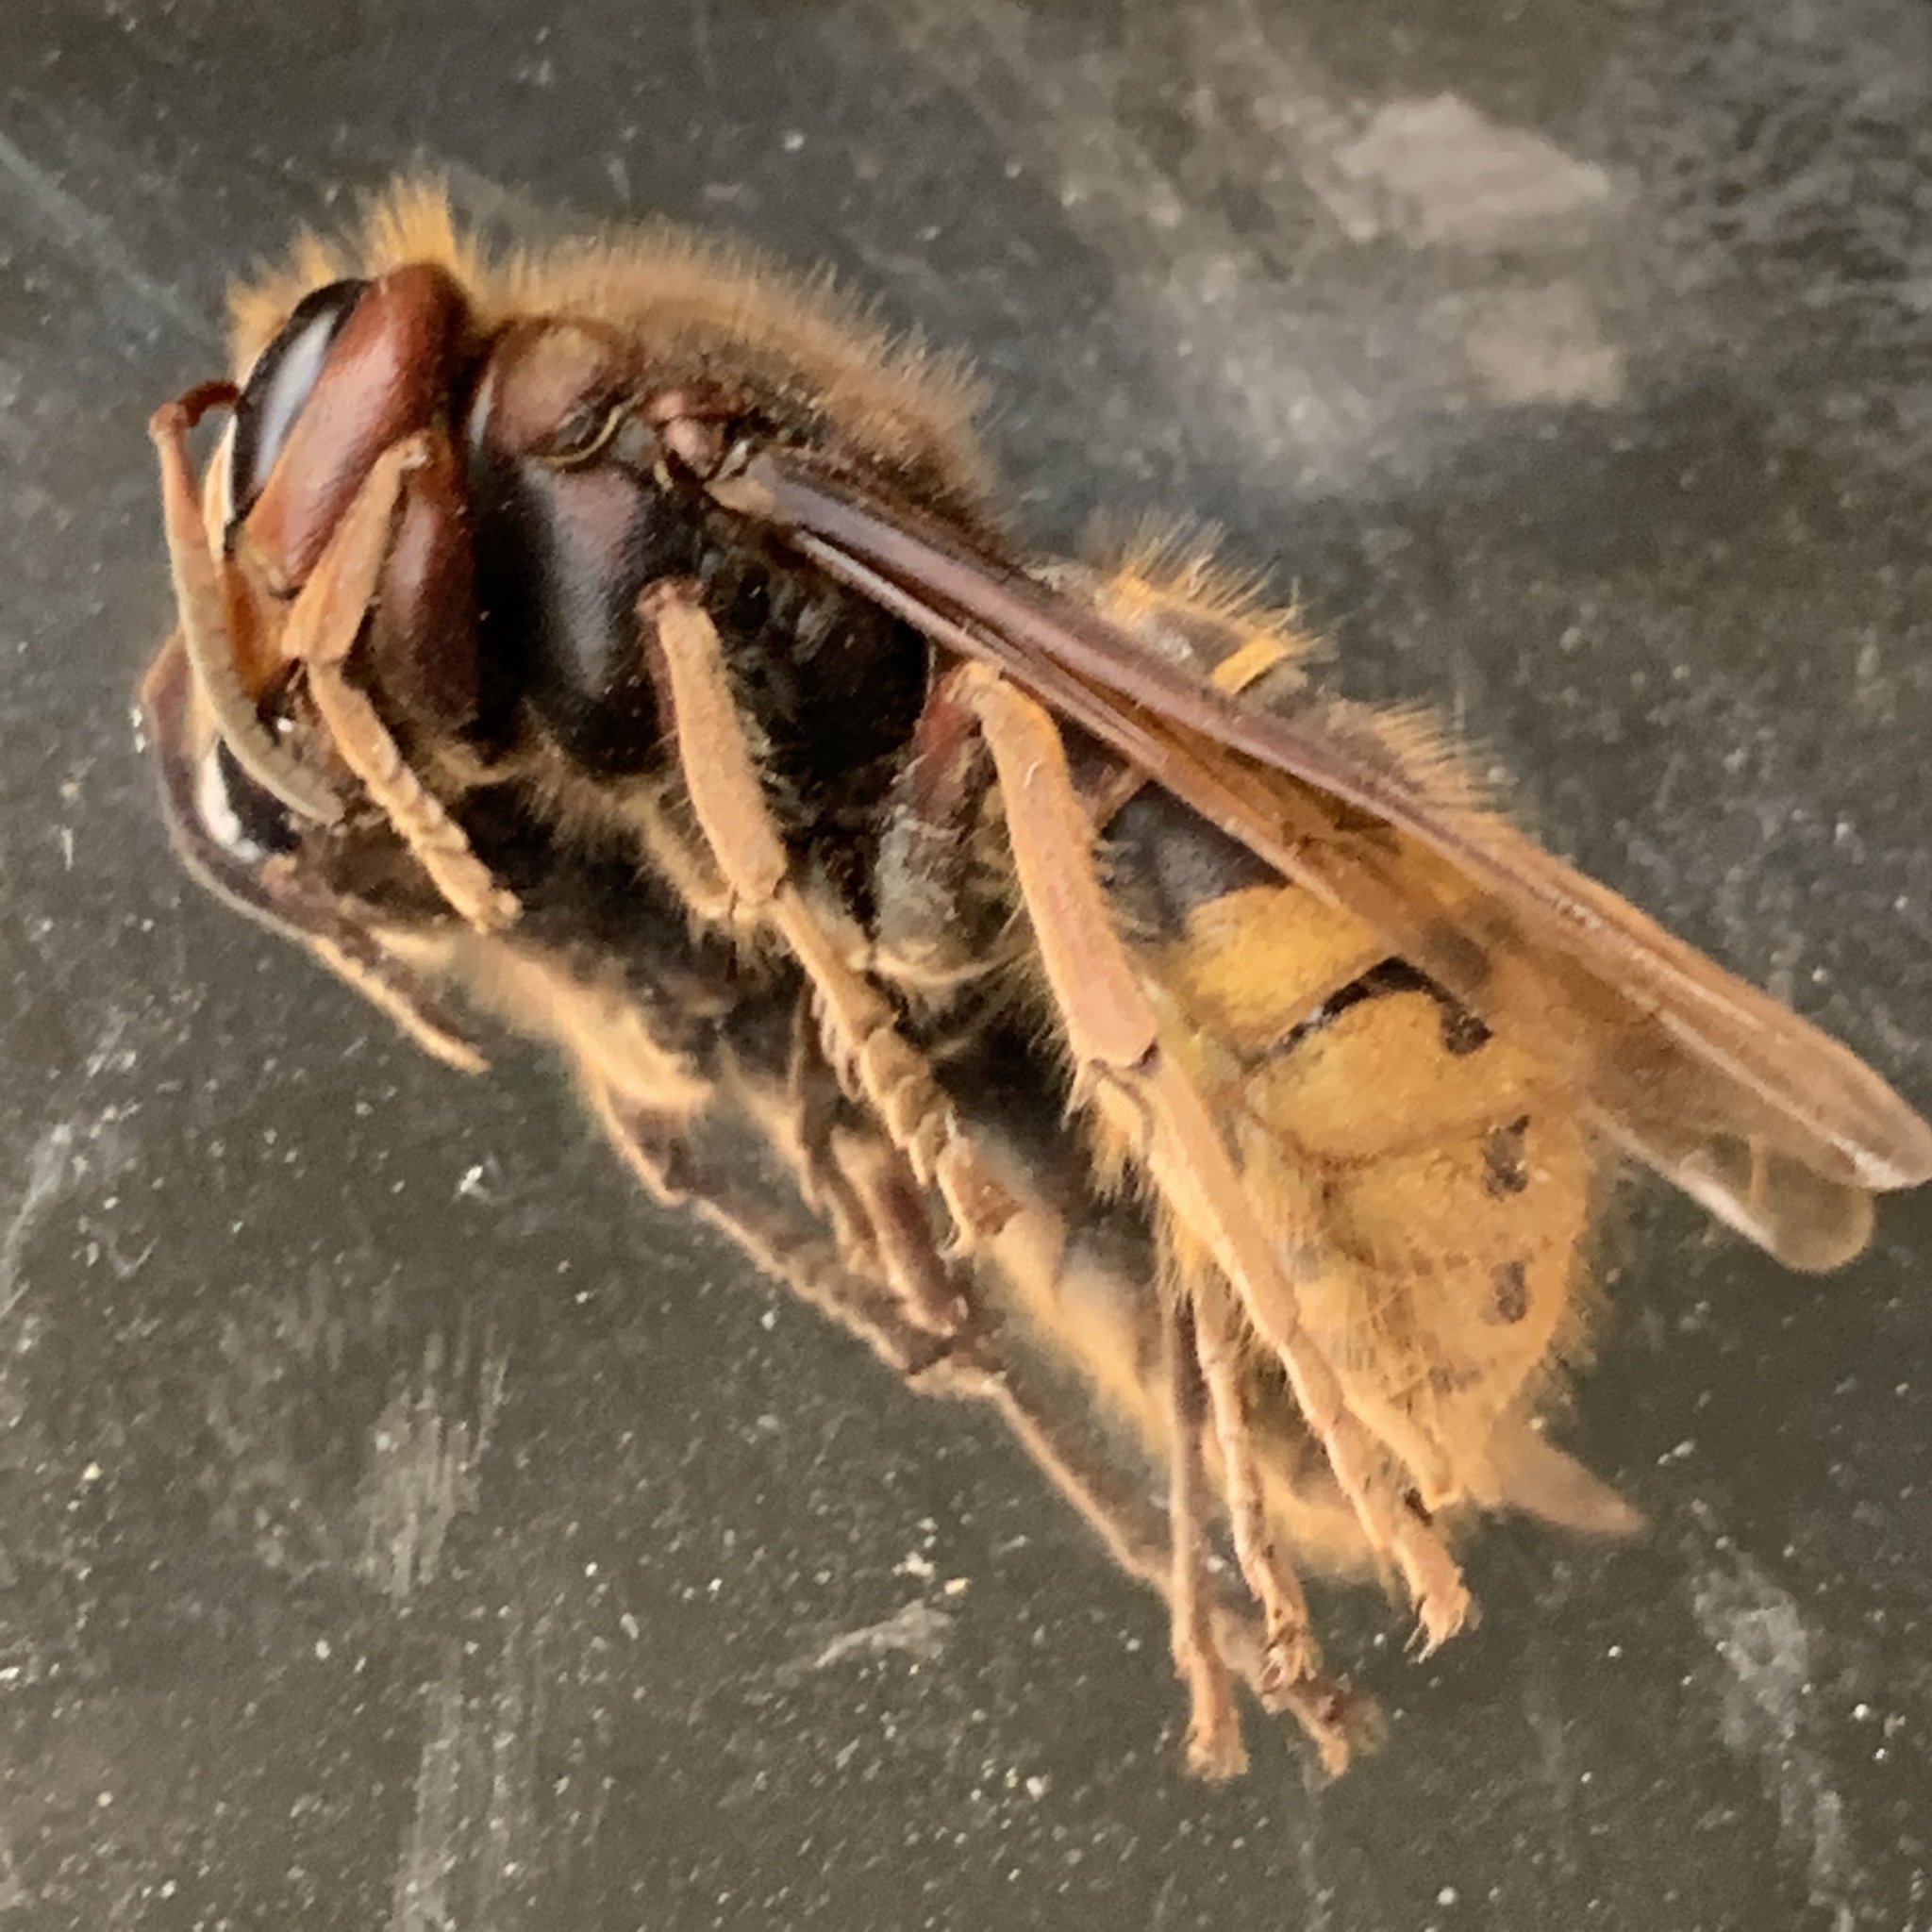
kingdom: Animalia
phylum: Arthropoda
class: Insecta
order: Hymenoptera
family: Vespidae
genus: Vespa
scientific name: Vespa crabro
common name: Hornet
